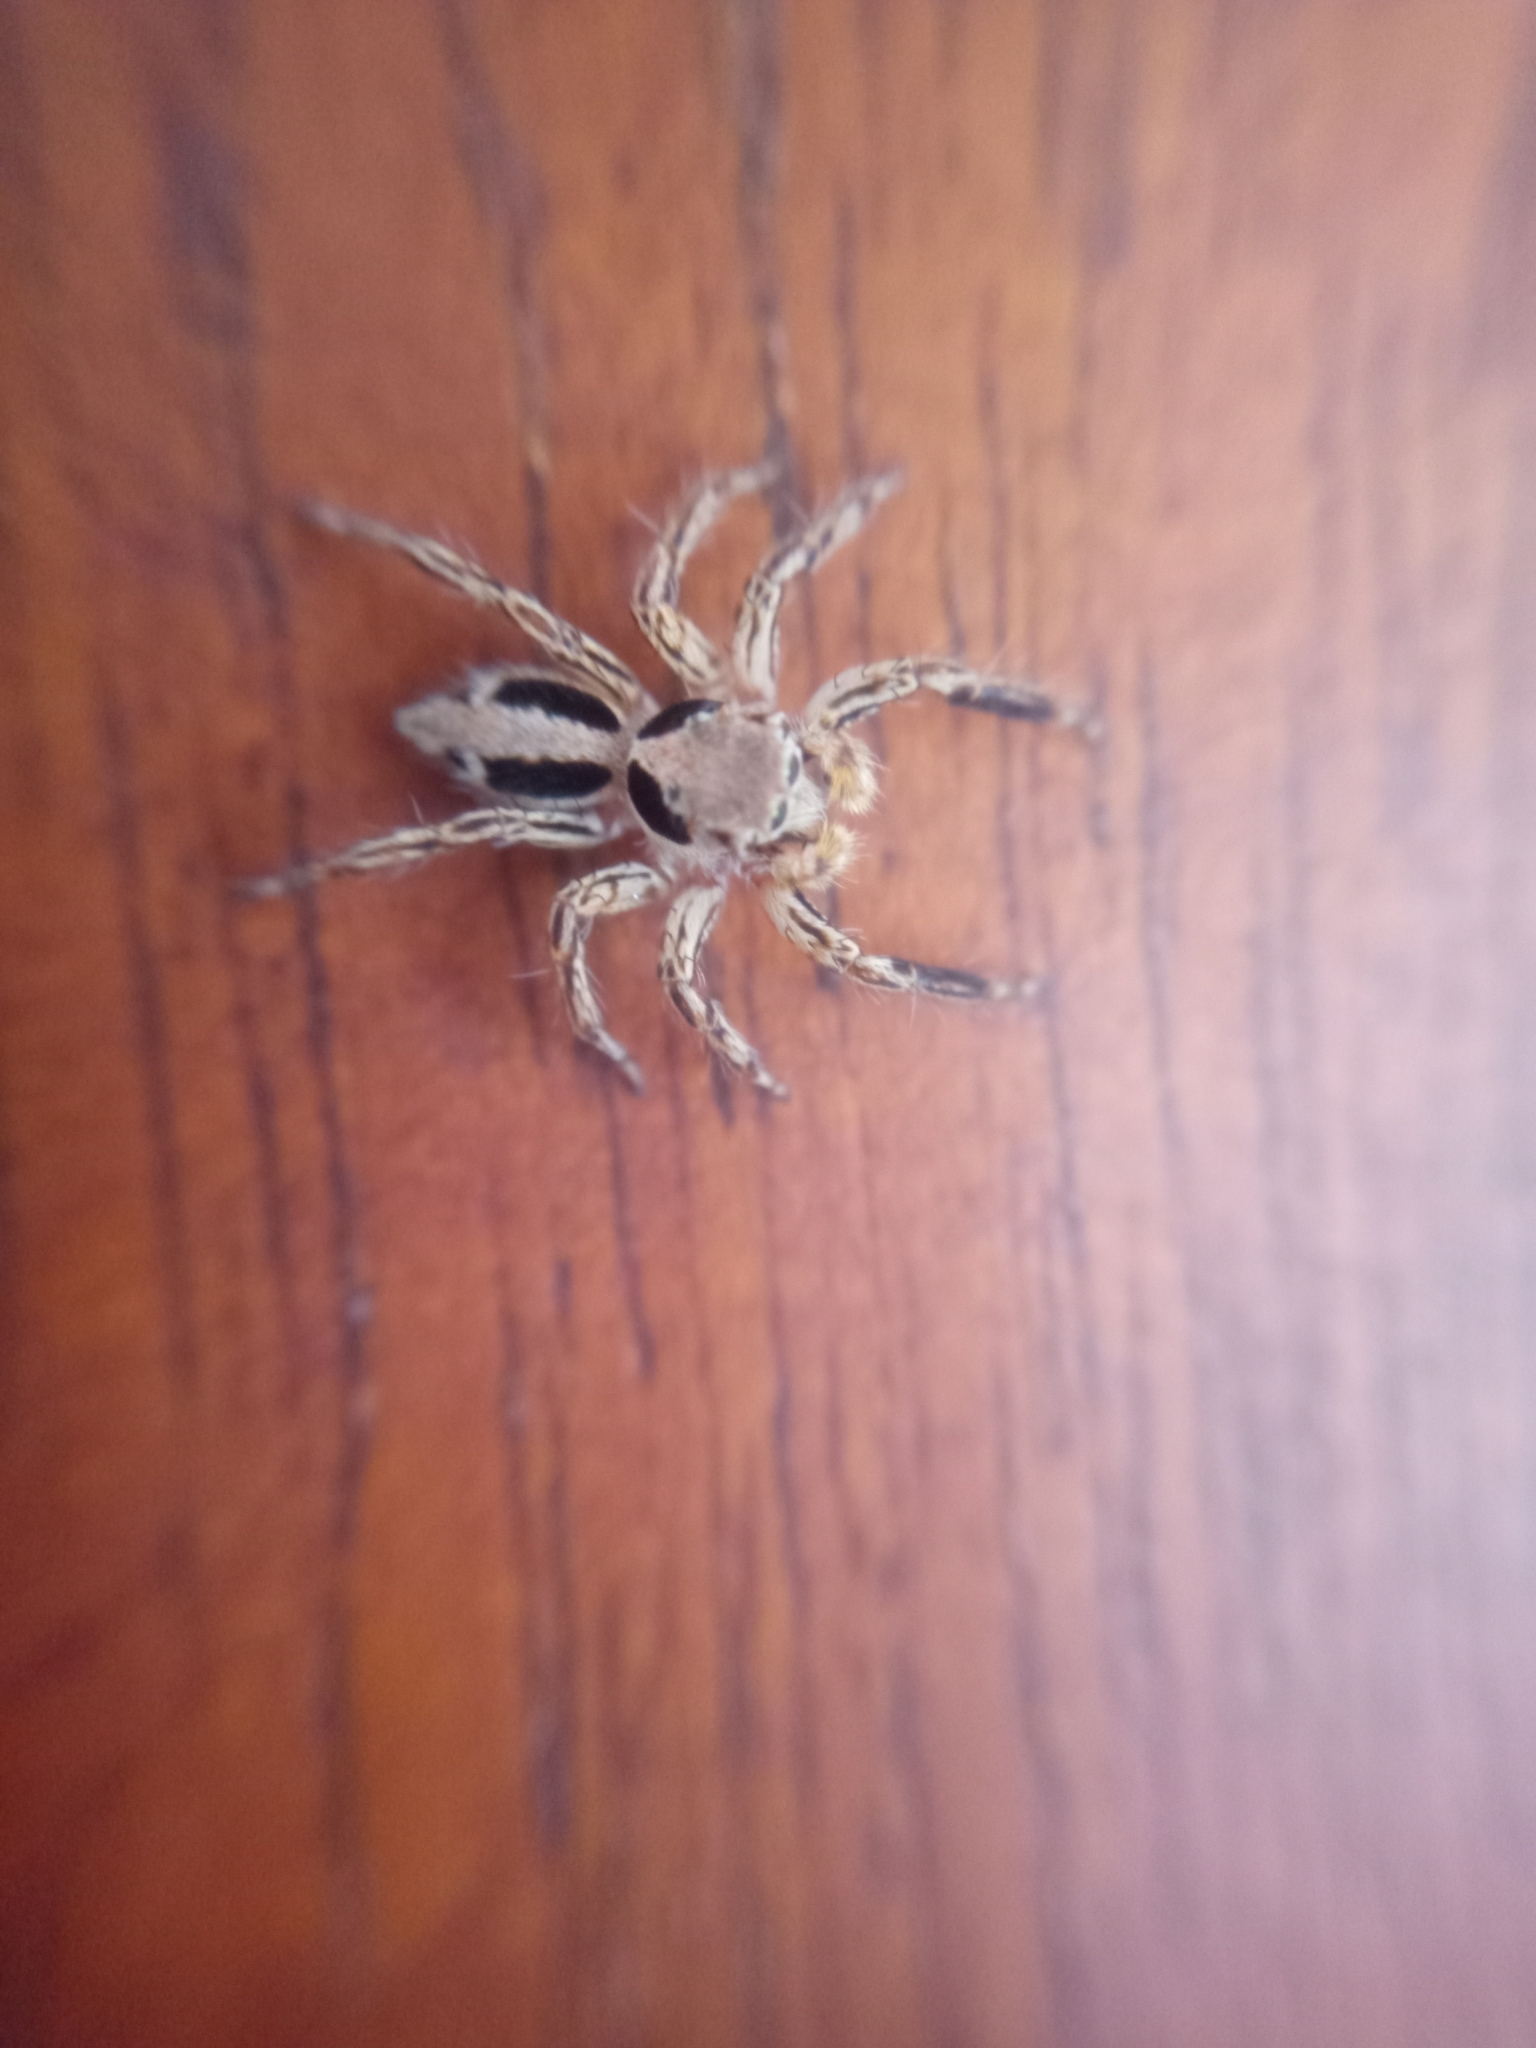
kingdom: Animalia
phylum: Arthropoda
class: Arachnida
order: Araneae
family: Salticidae
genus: Plexippus
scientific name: Plexippus petersi
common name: Jumping spider
